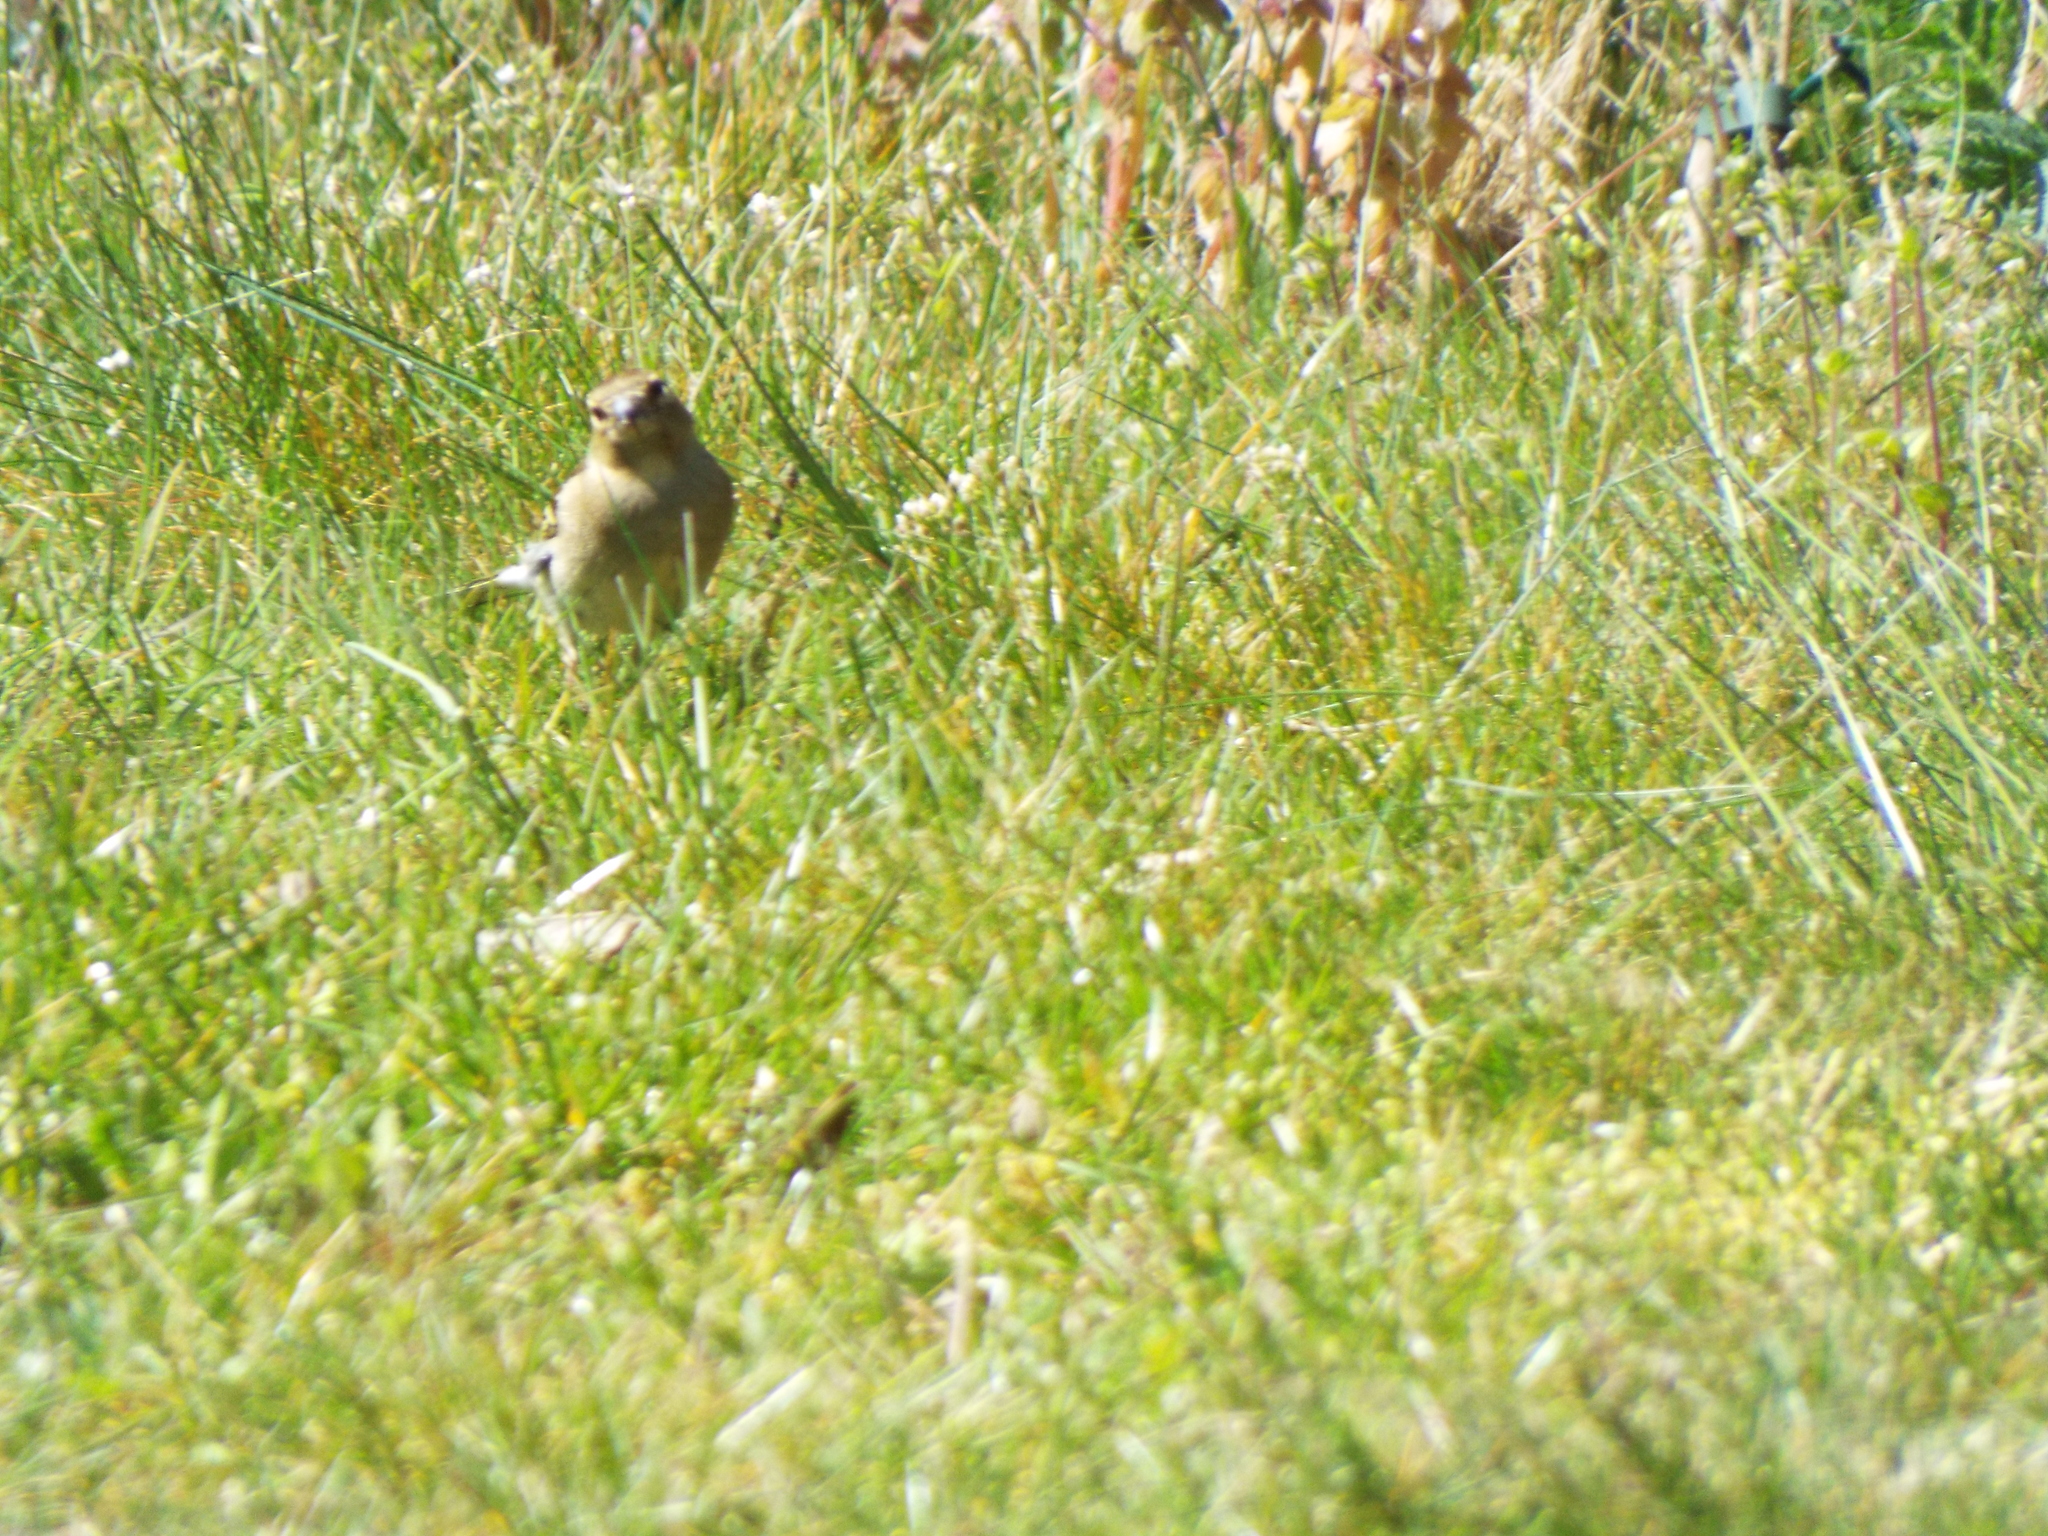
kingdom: Animalia
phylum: Chordata
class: Aves
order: Passeriformes
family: Fringillidae
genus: Fringilla
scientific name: Fringilla coelebs
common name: Common chaffinch
